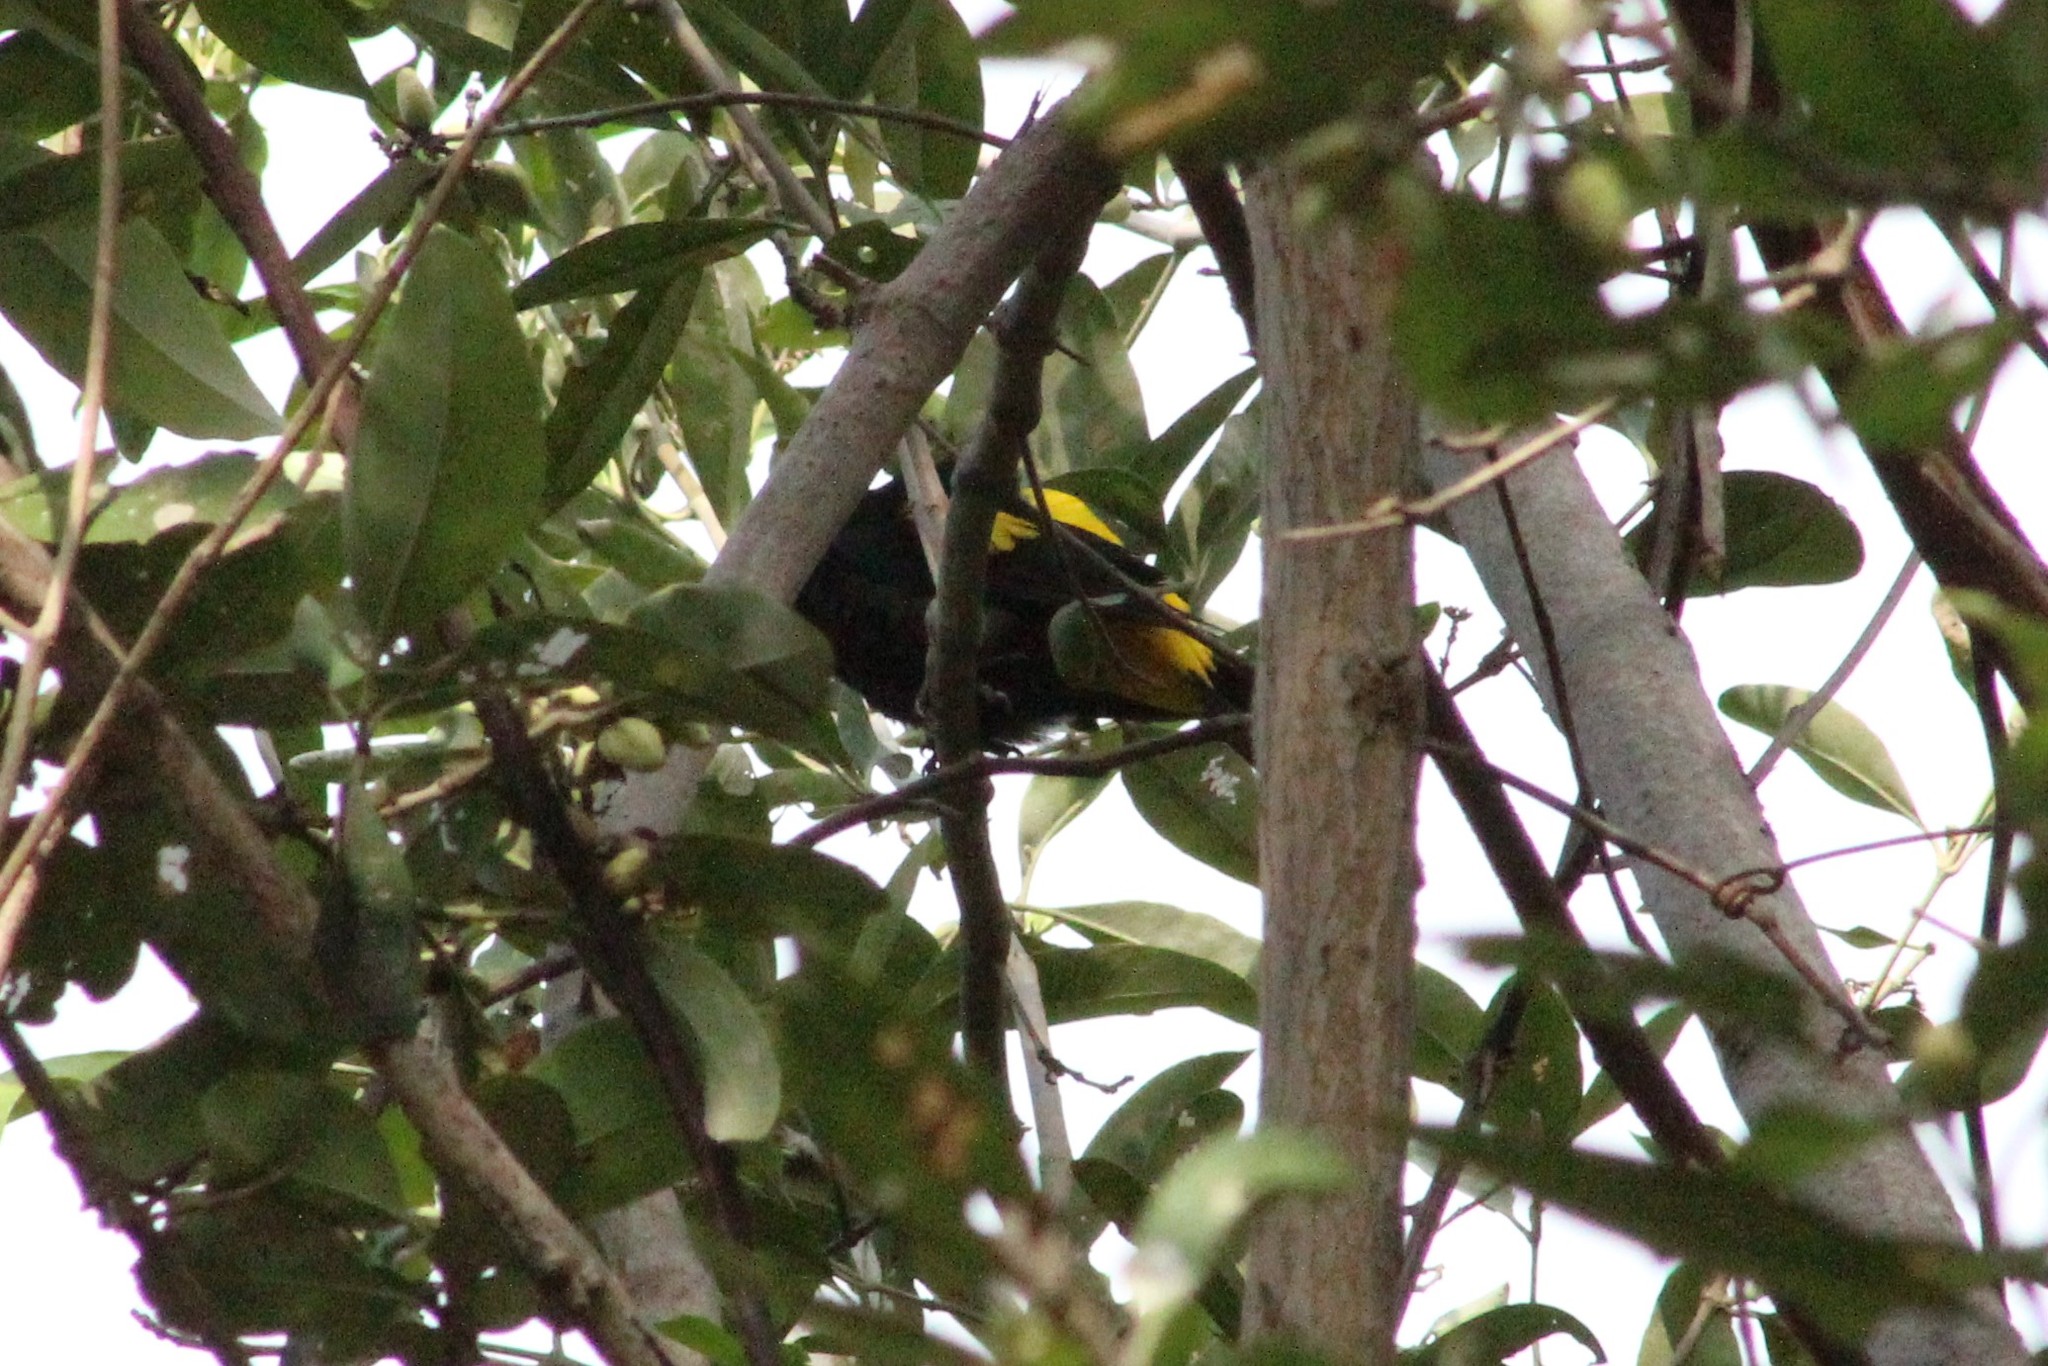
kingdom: Animalia
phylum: Chordata
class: Aves
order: Passeriformes
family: Icteridae
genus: Cacicus
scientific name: Cacicus cela
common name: Yellow-rumped cacique
